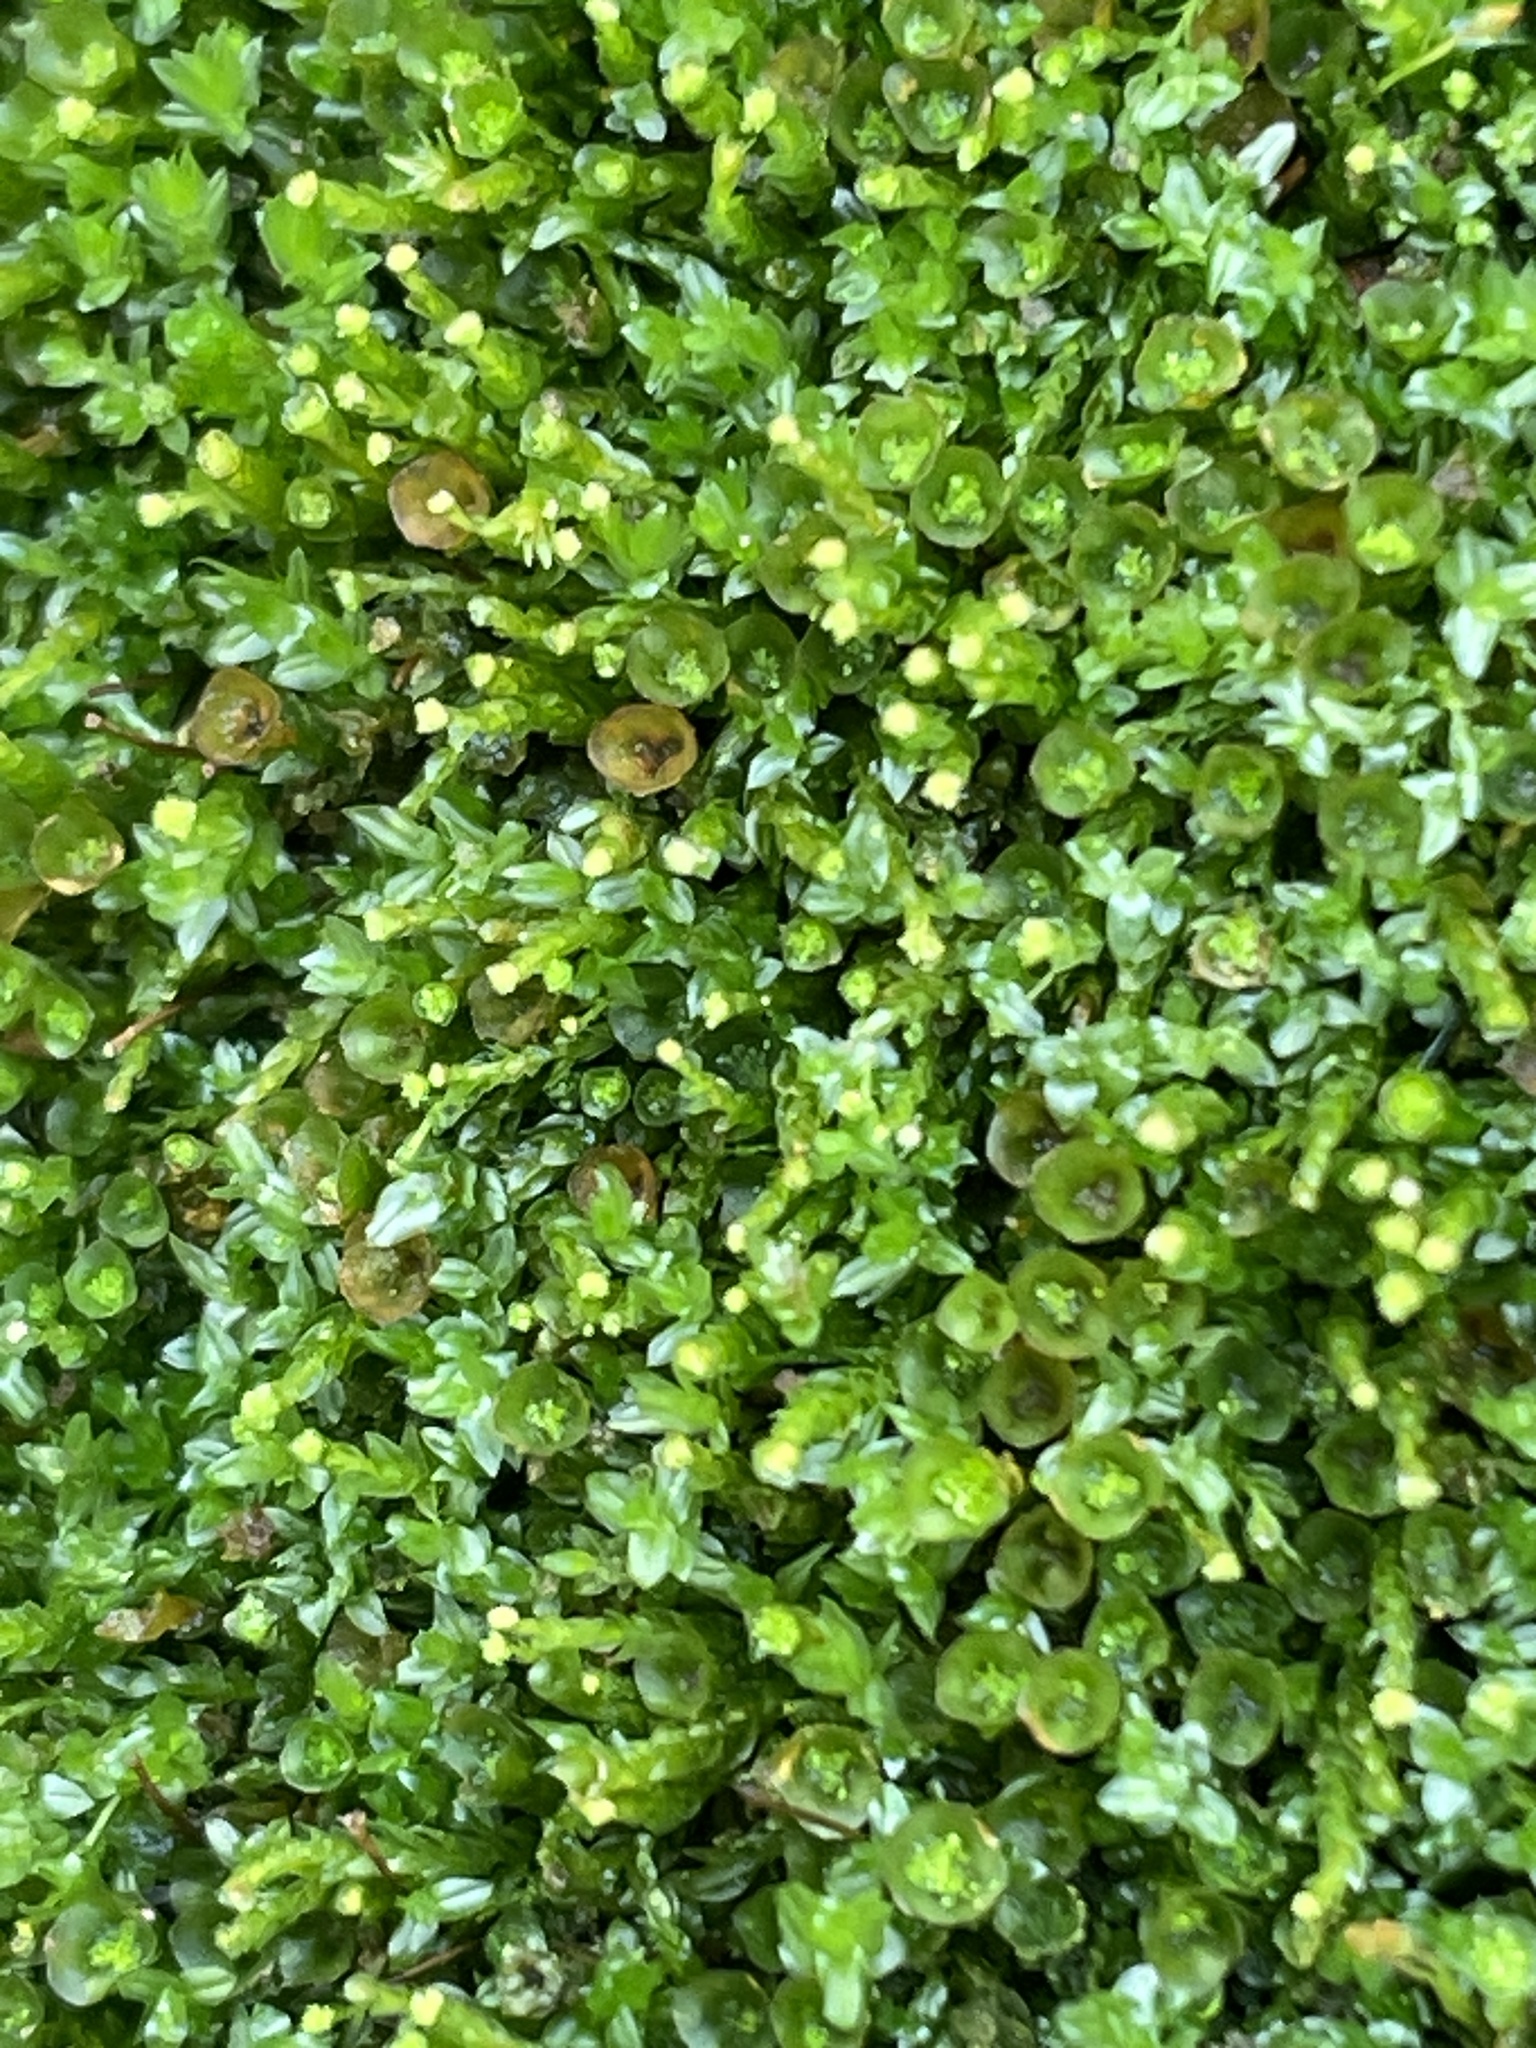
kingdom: Plantae
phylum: Bryophyta
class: Polytrichopsida
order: Tetraphidales
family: Tetraphidaceae
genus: Tetraphis
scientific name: Tetraphis pellucida
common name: Common four-toothed moss
